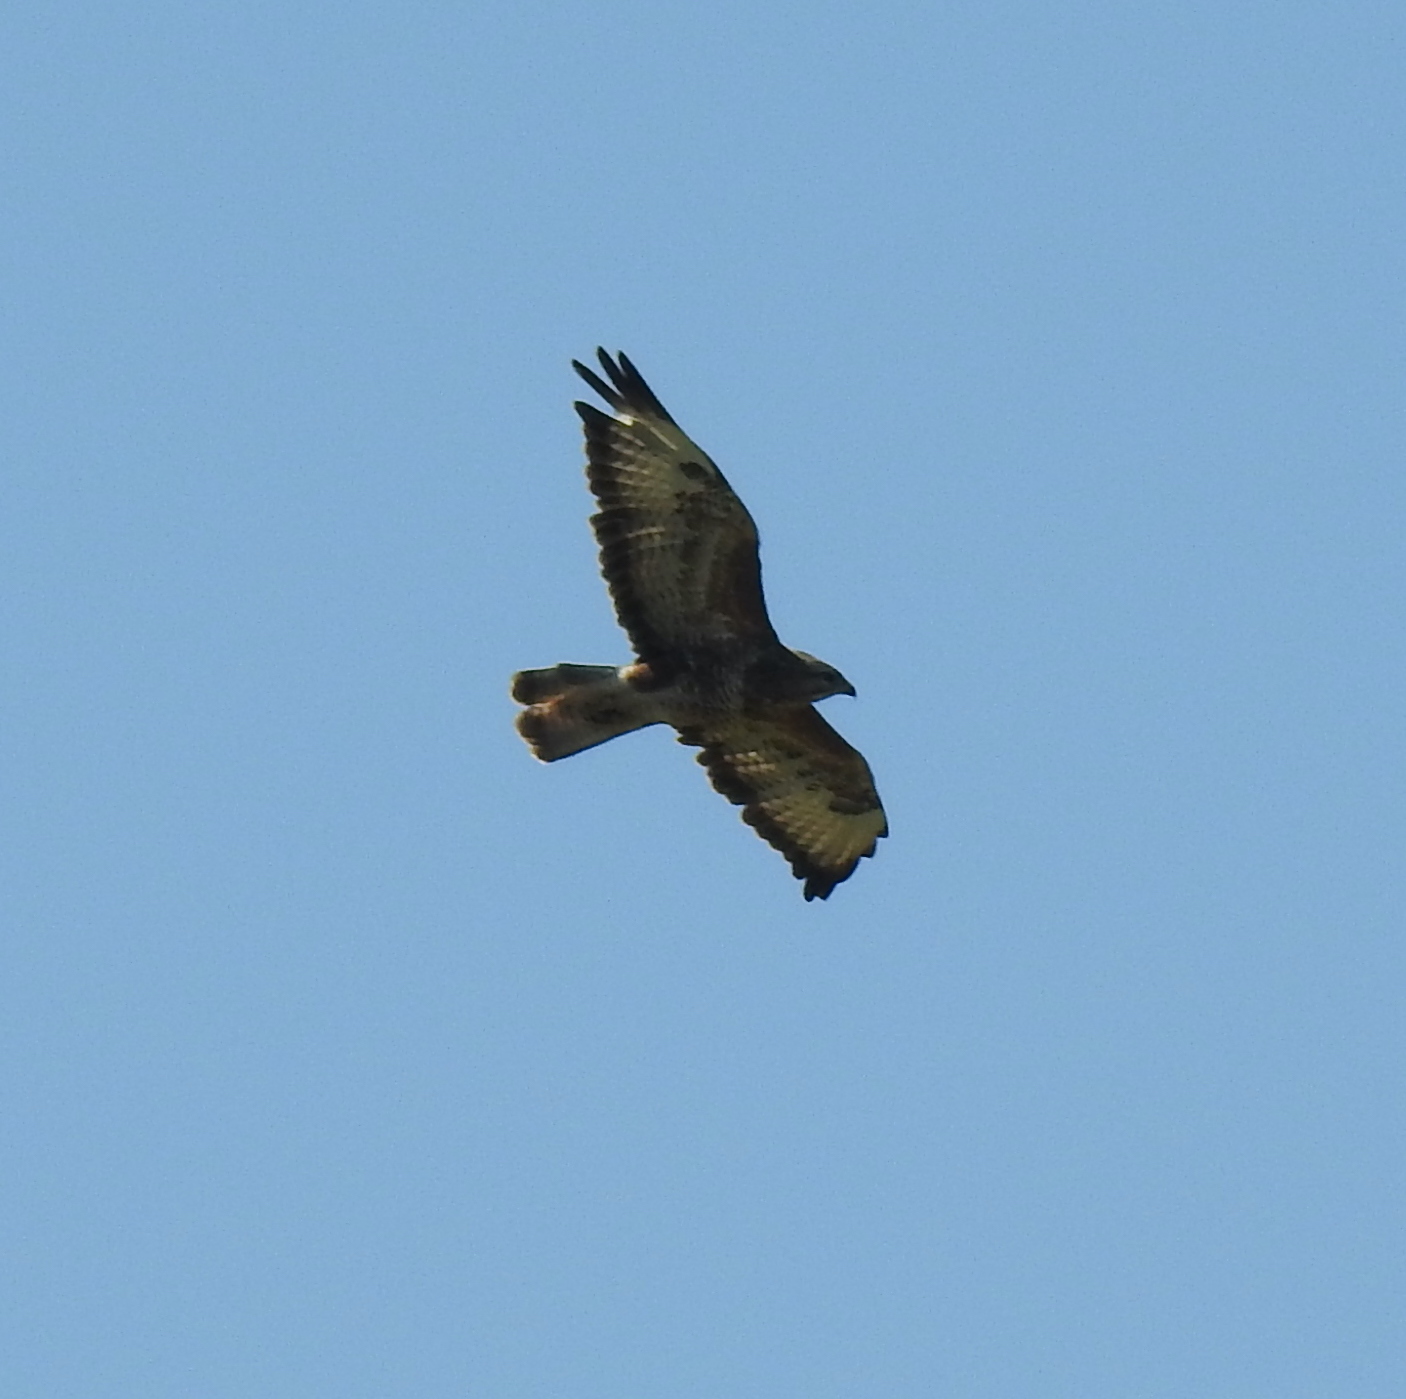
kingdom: Animalia
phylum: Chordata
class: Aves
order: Accipitriformes
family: Accipitridae
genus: Buteo
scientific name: Buteo buteo
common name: Common buzzard
